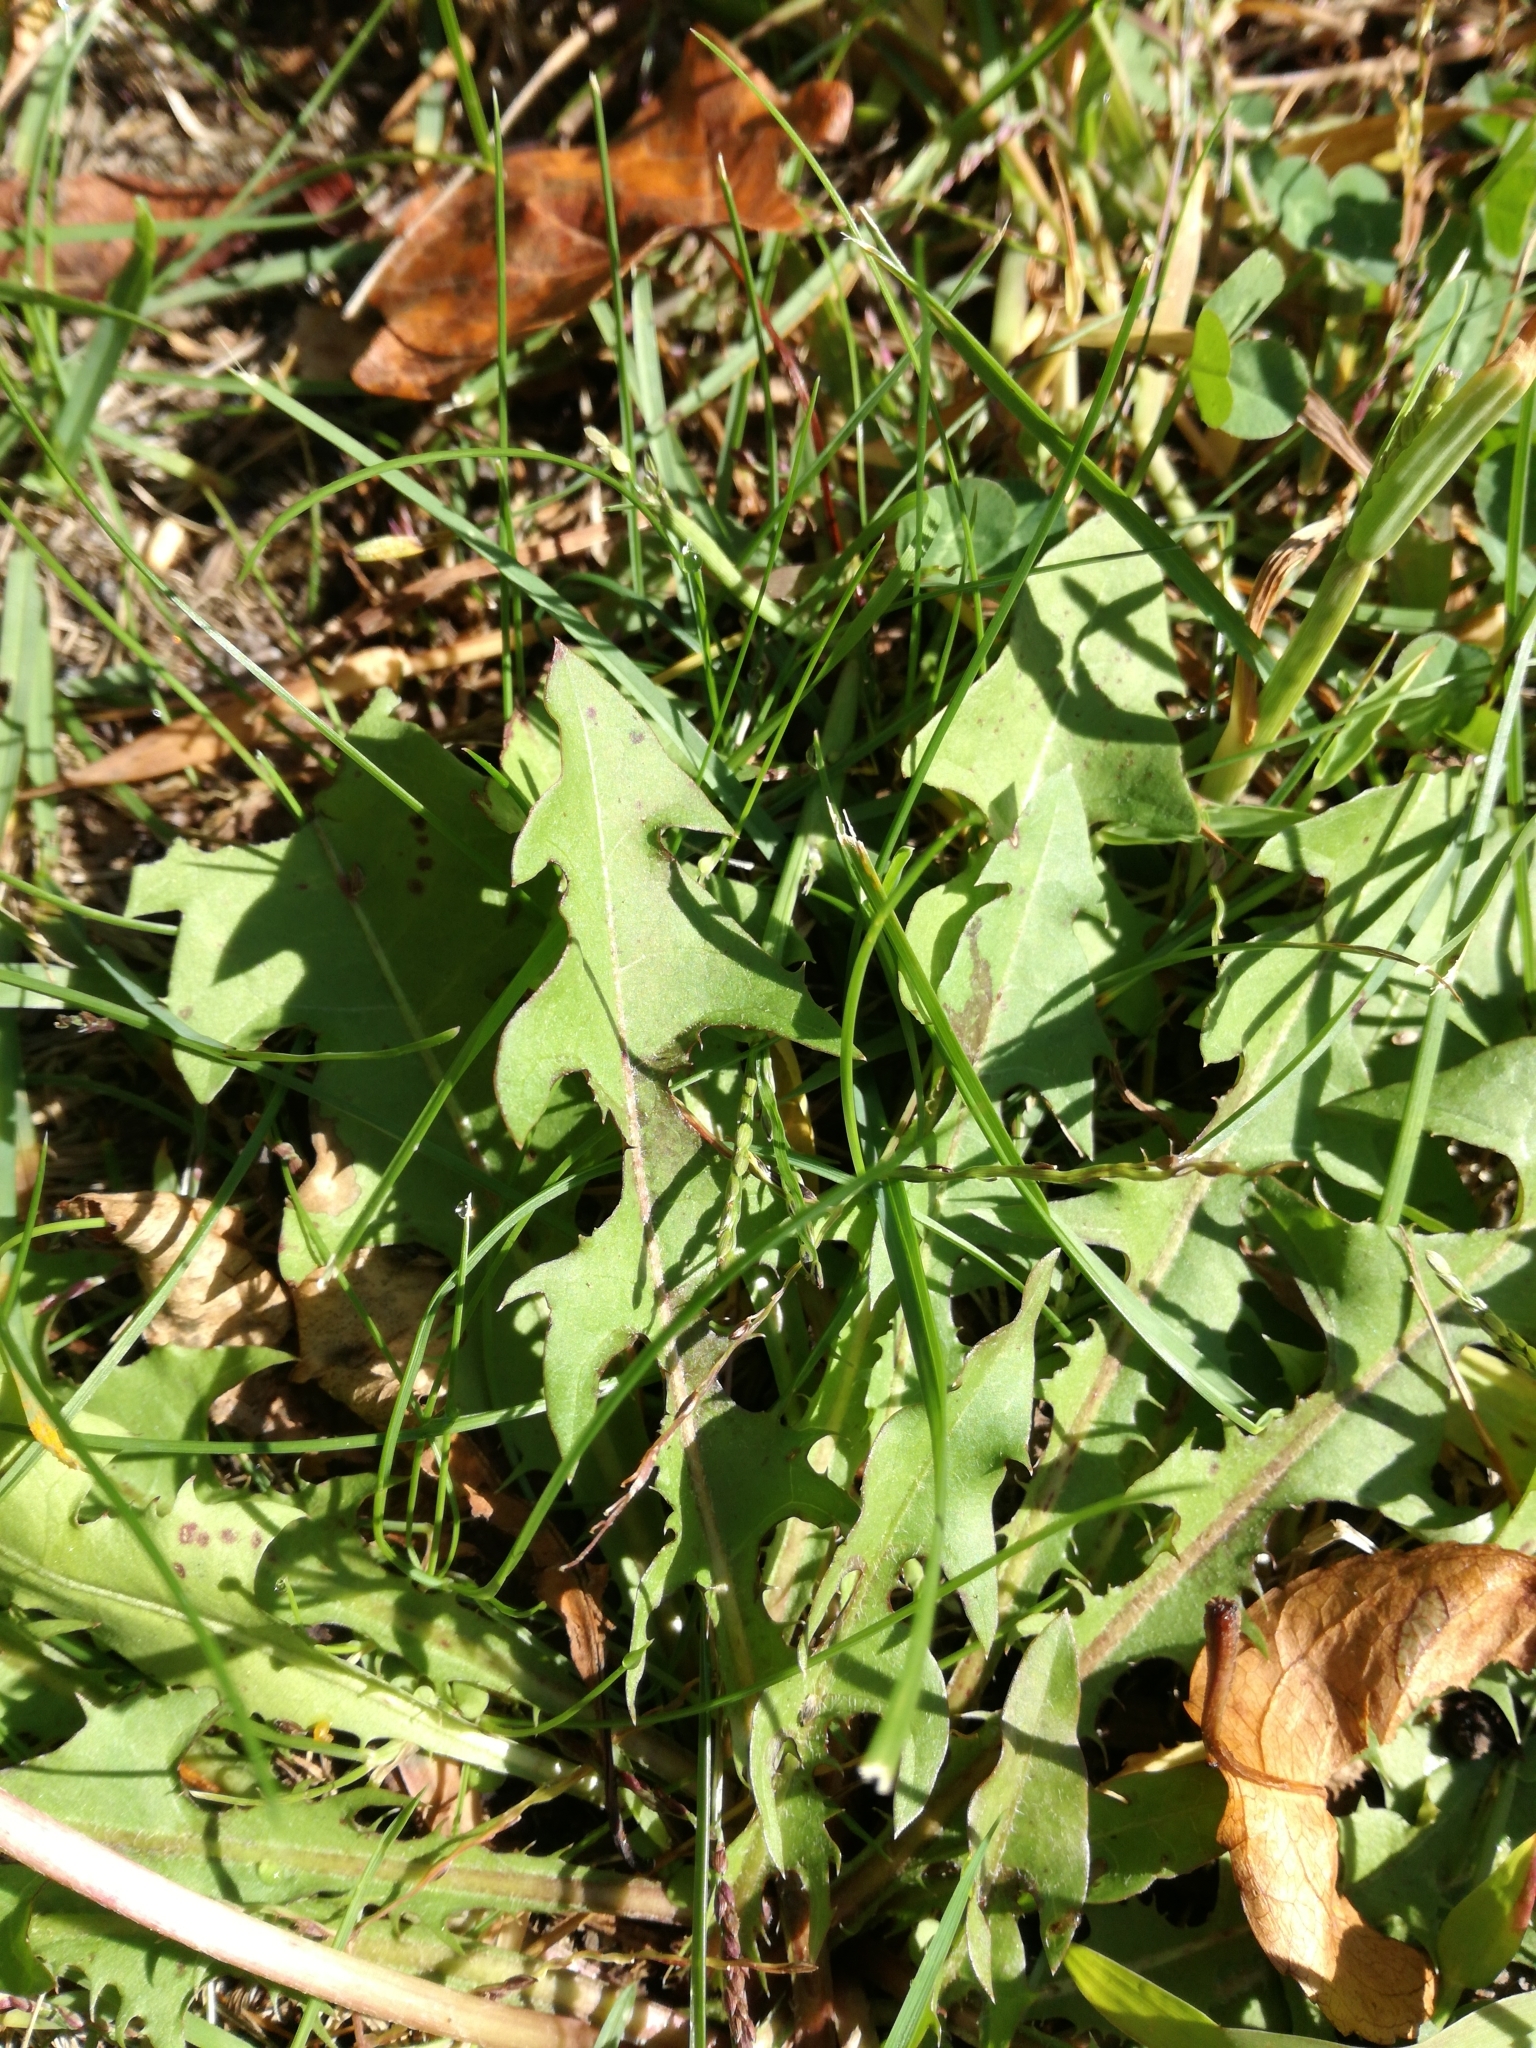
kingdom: Plantae
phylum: Tracheophyta
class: Magnoliopsida
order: Asterales
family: Asteraceae
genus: Taraxacum
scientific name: Taraxacum officinale
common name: Common dandelion
